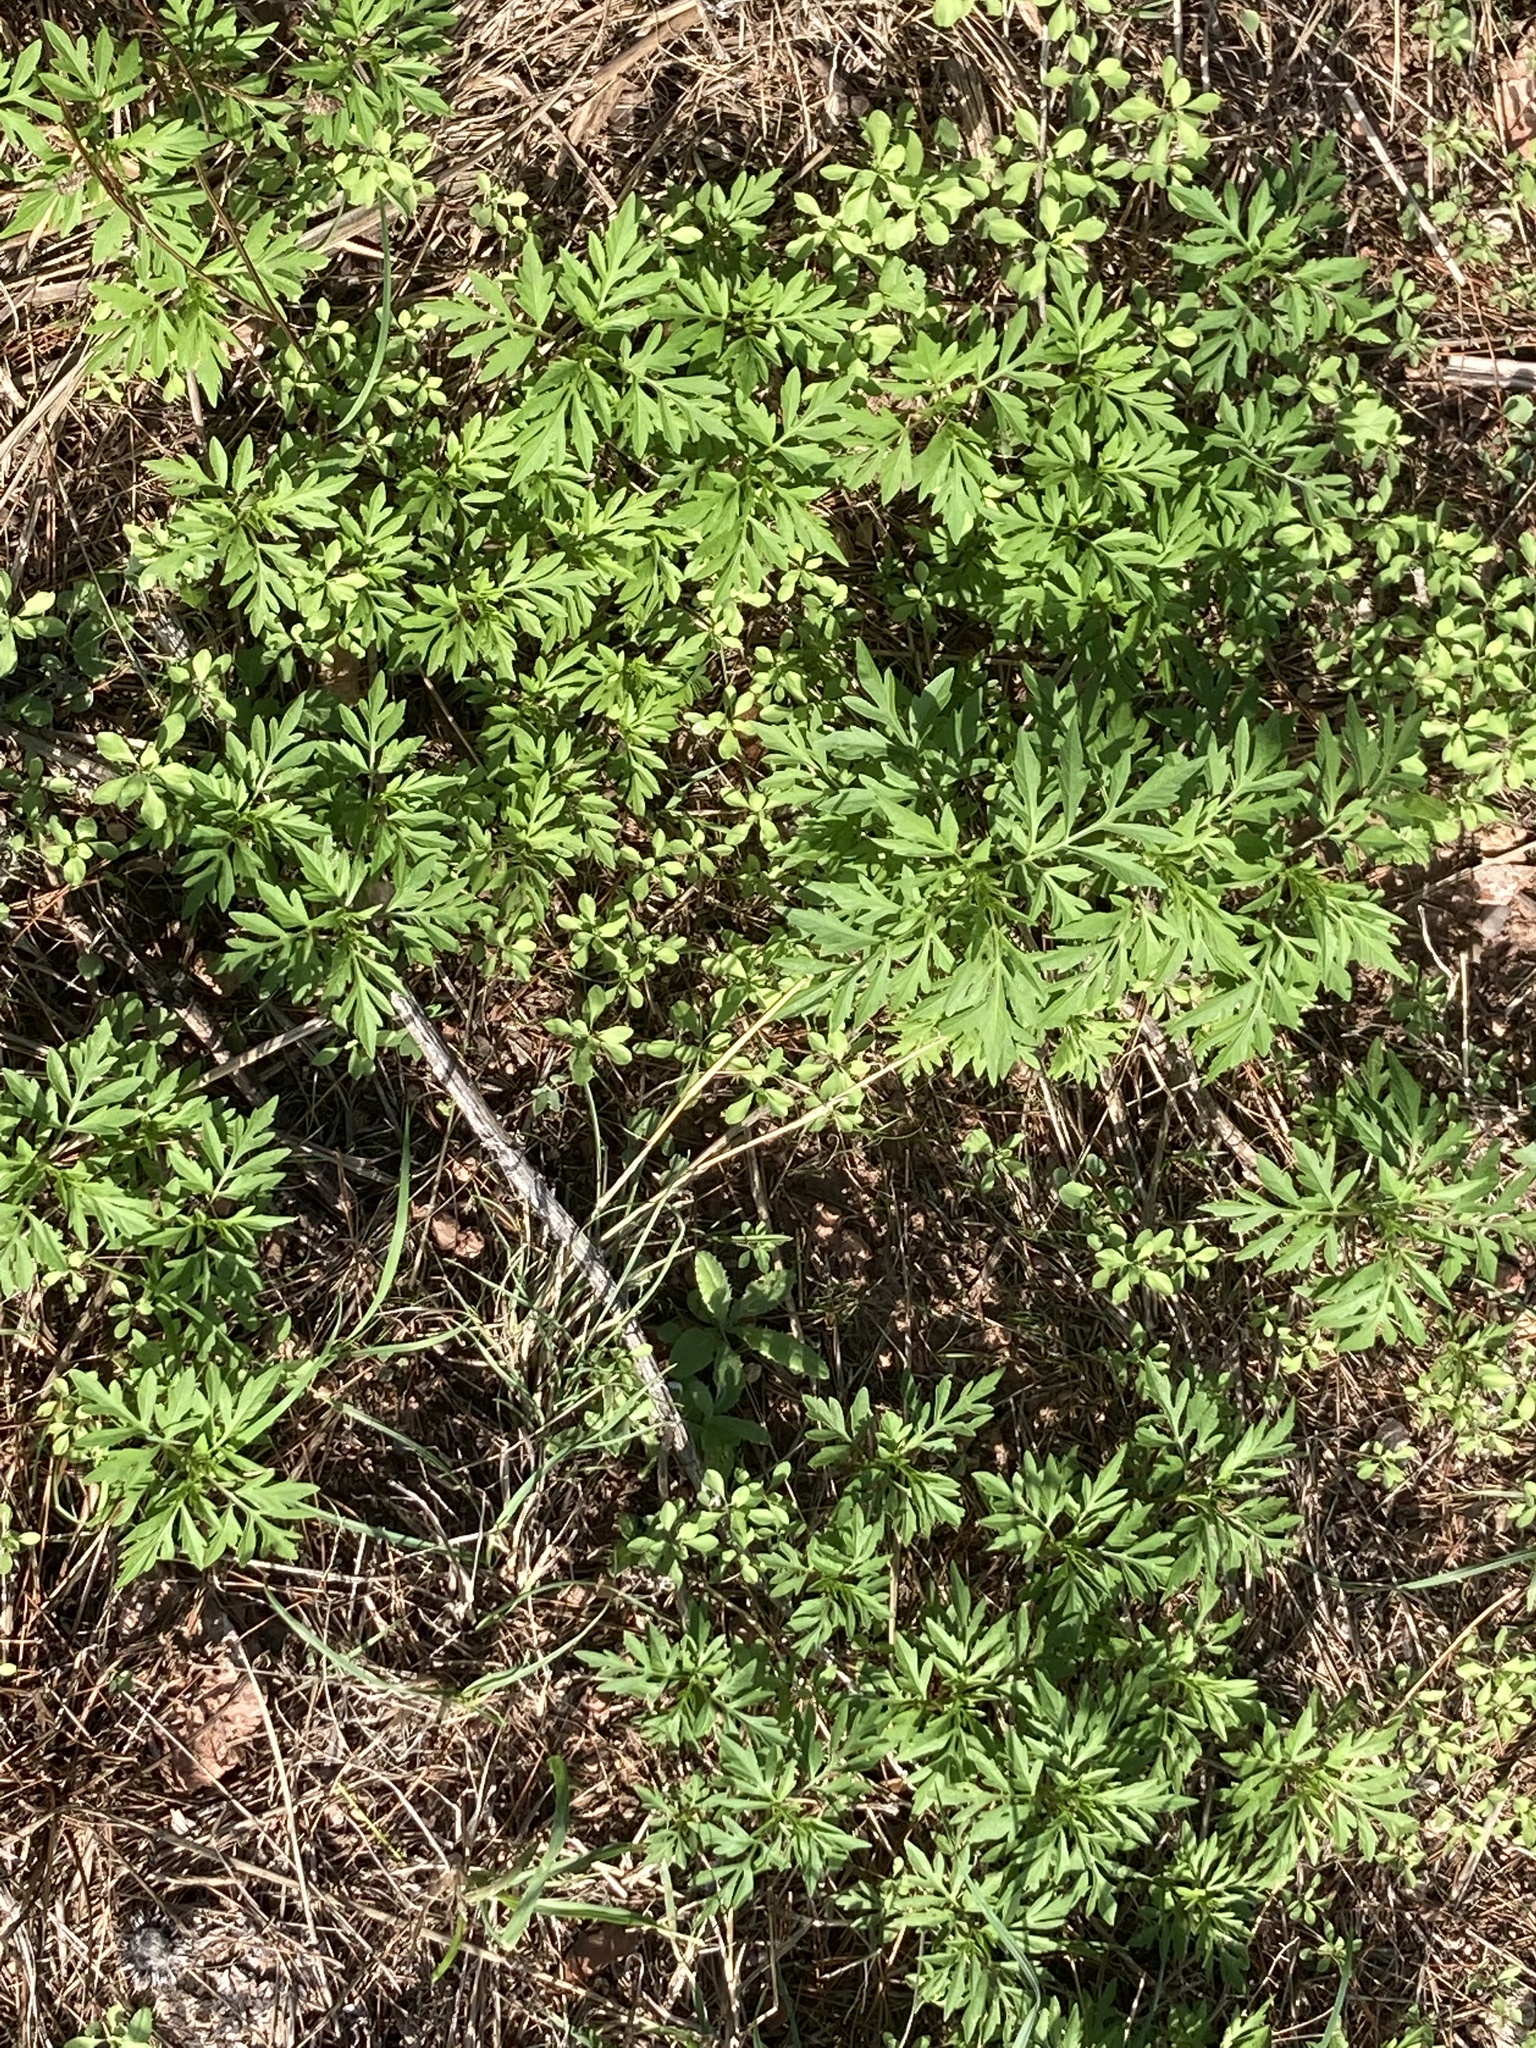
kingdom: Plantae
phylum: Tracheophyta
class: Magnoliopsida
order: Asterales
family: Asteraceae
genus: Bidens
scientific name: Bidens subalternans
